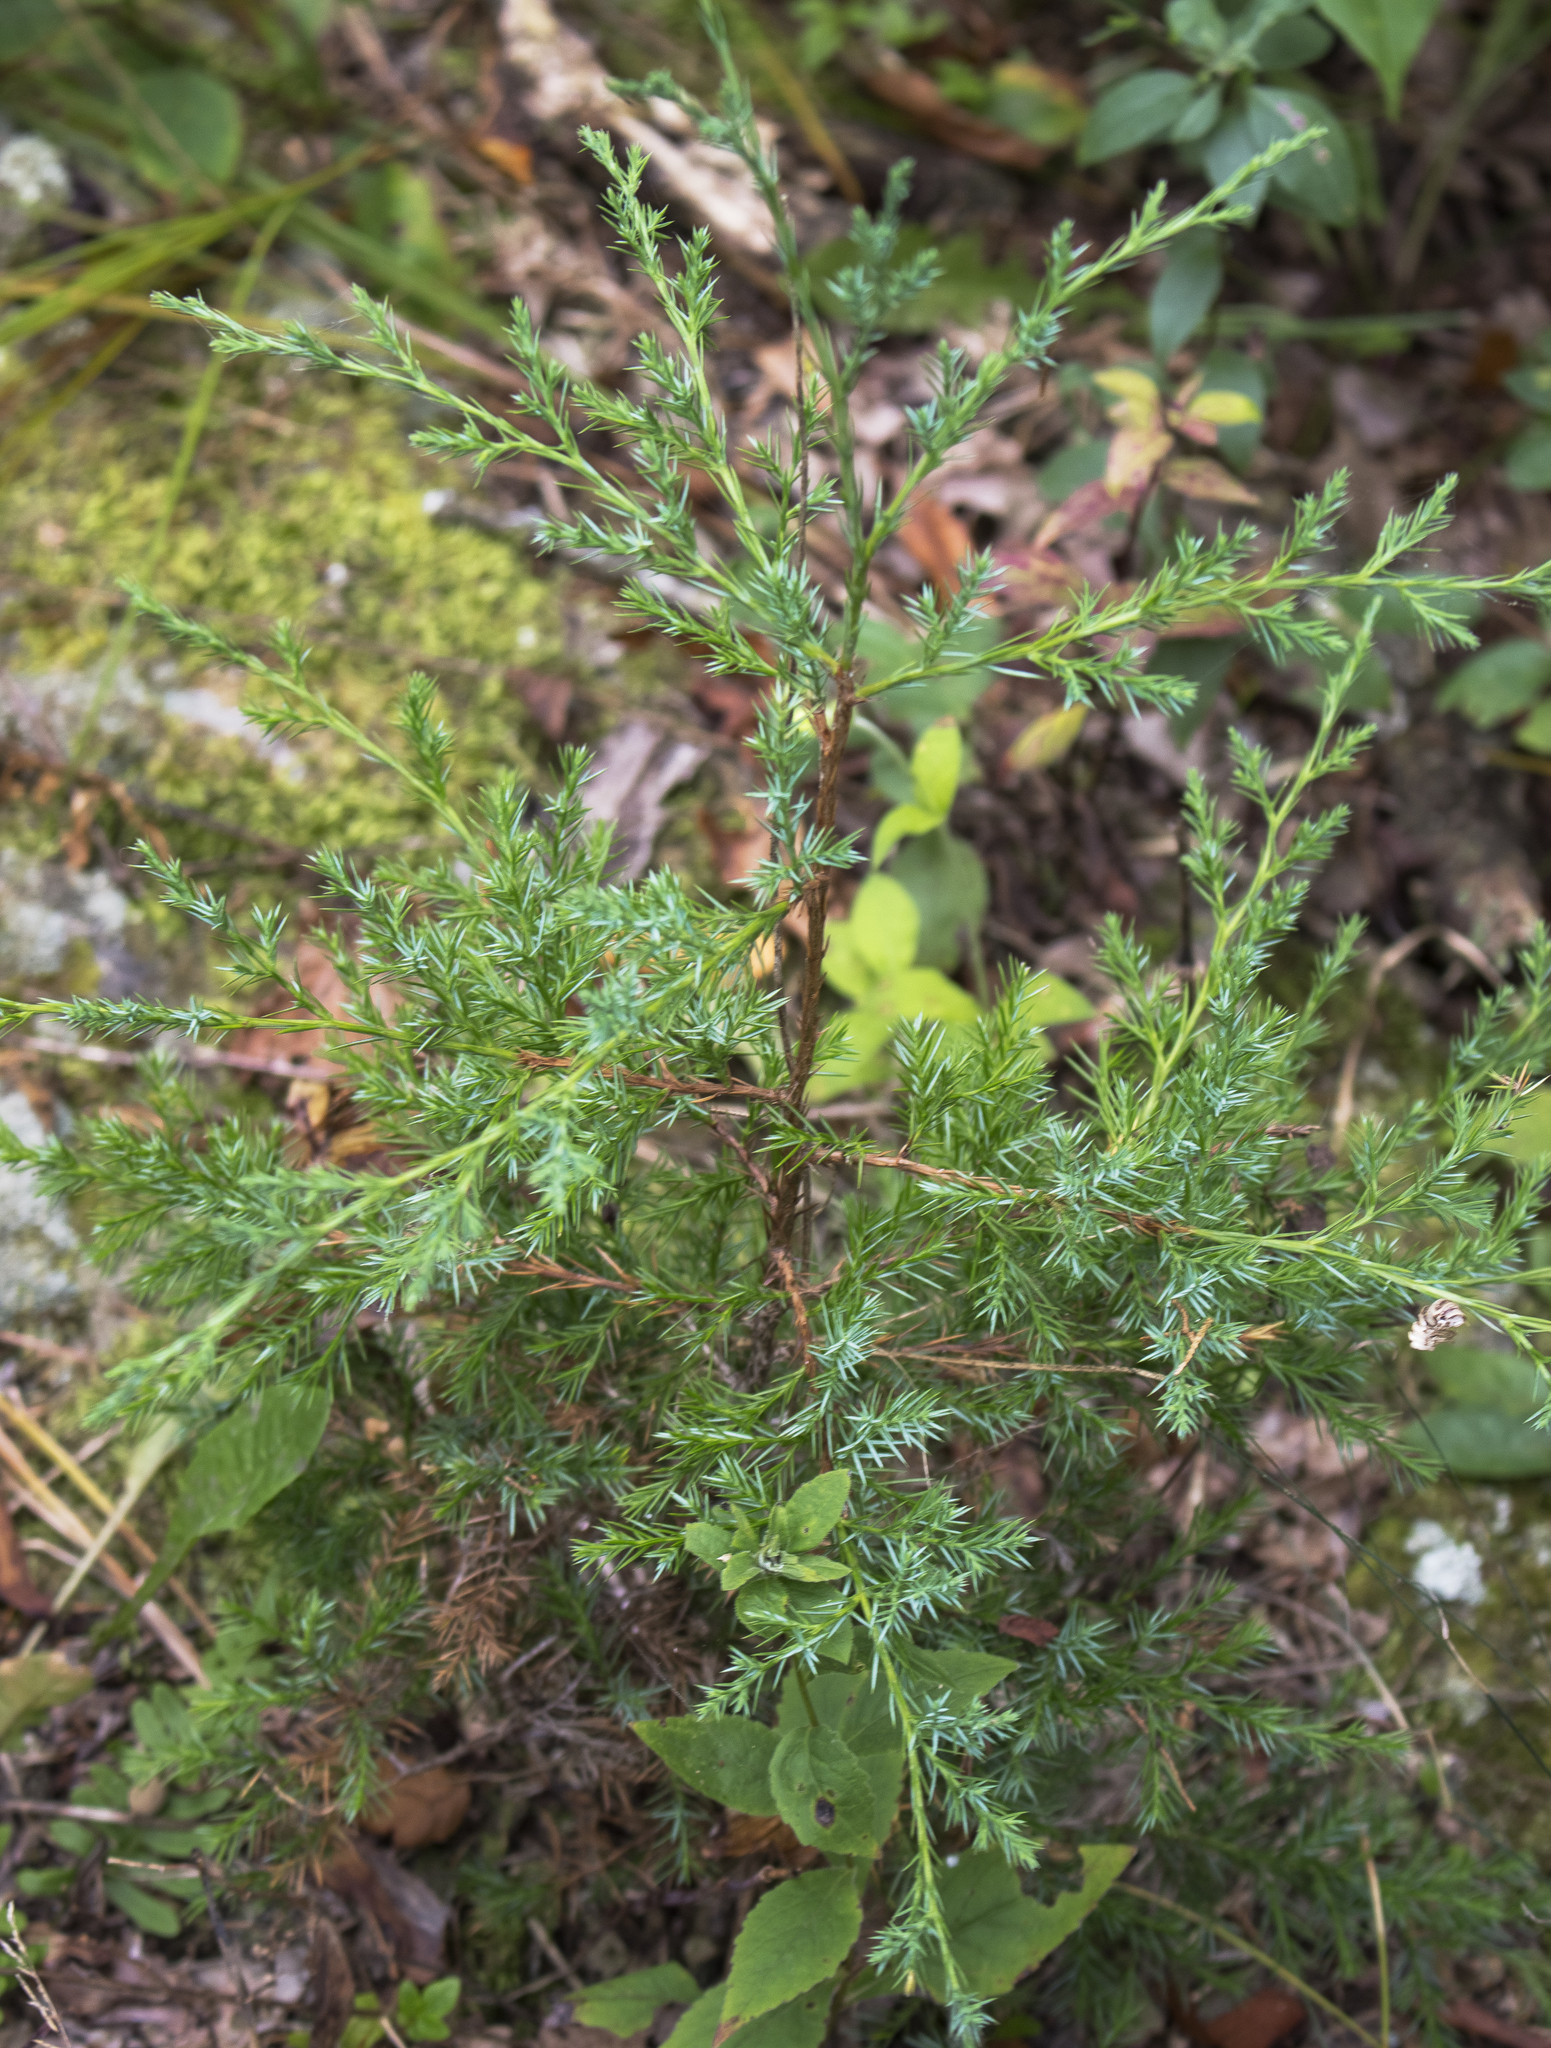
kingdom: Plantae
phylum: Tracheophyta
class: Pinopsida
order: Pinales
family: Cupressaceae
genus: Juniperus
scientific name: Juniperus virginiana
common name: Red juniper
